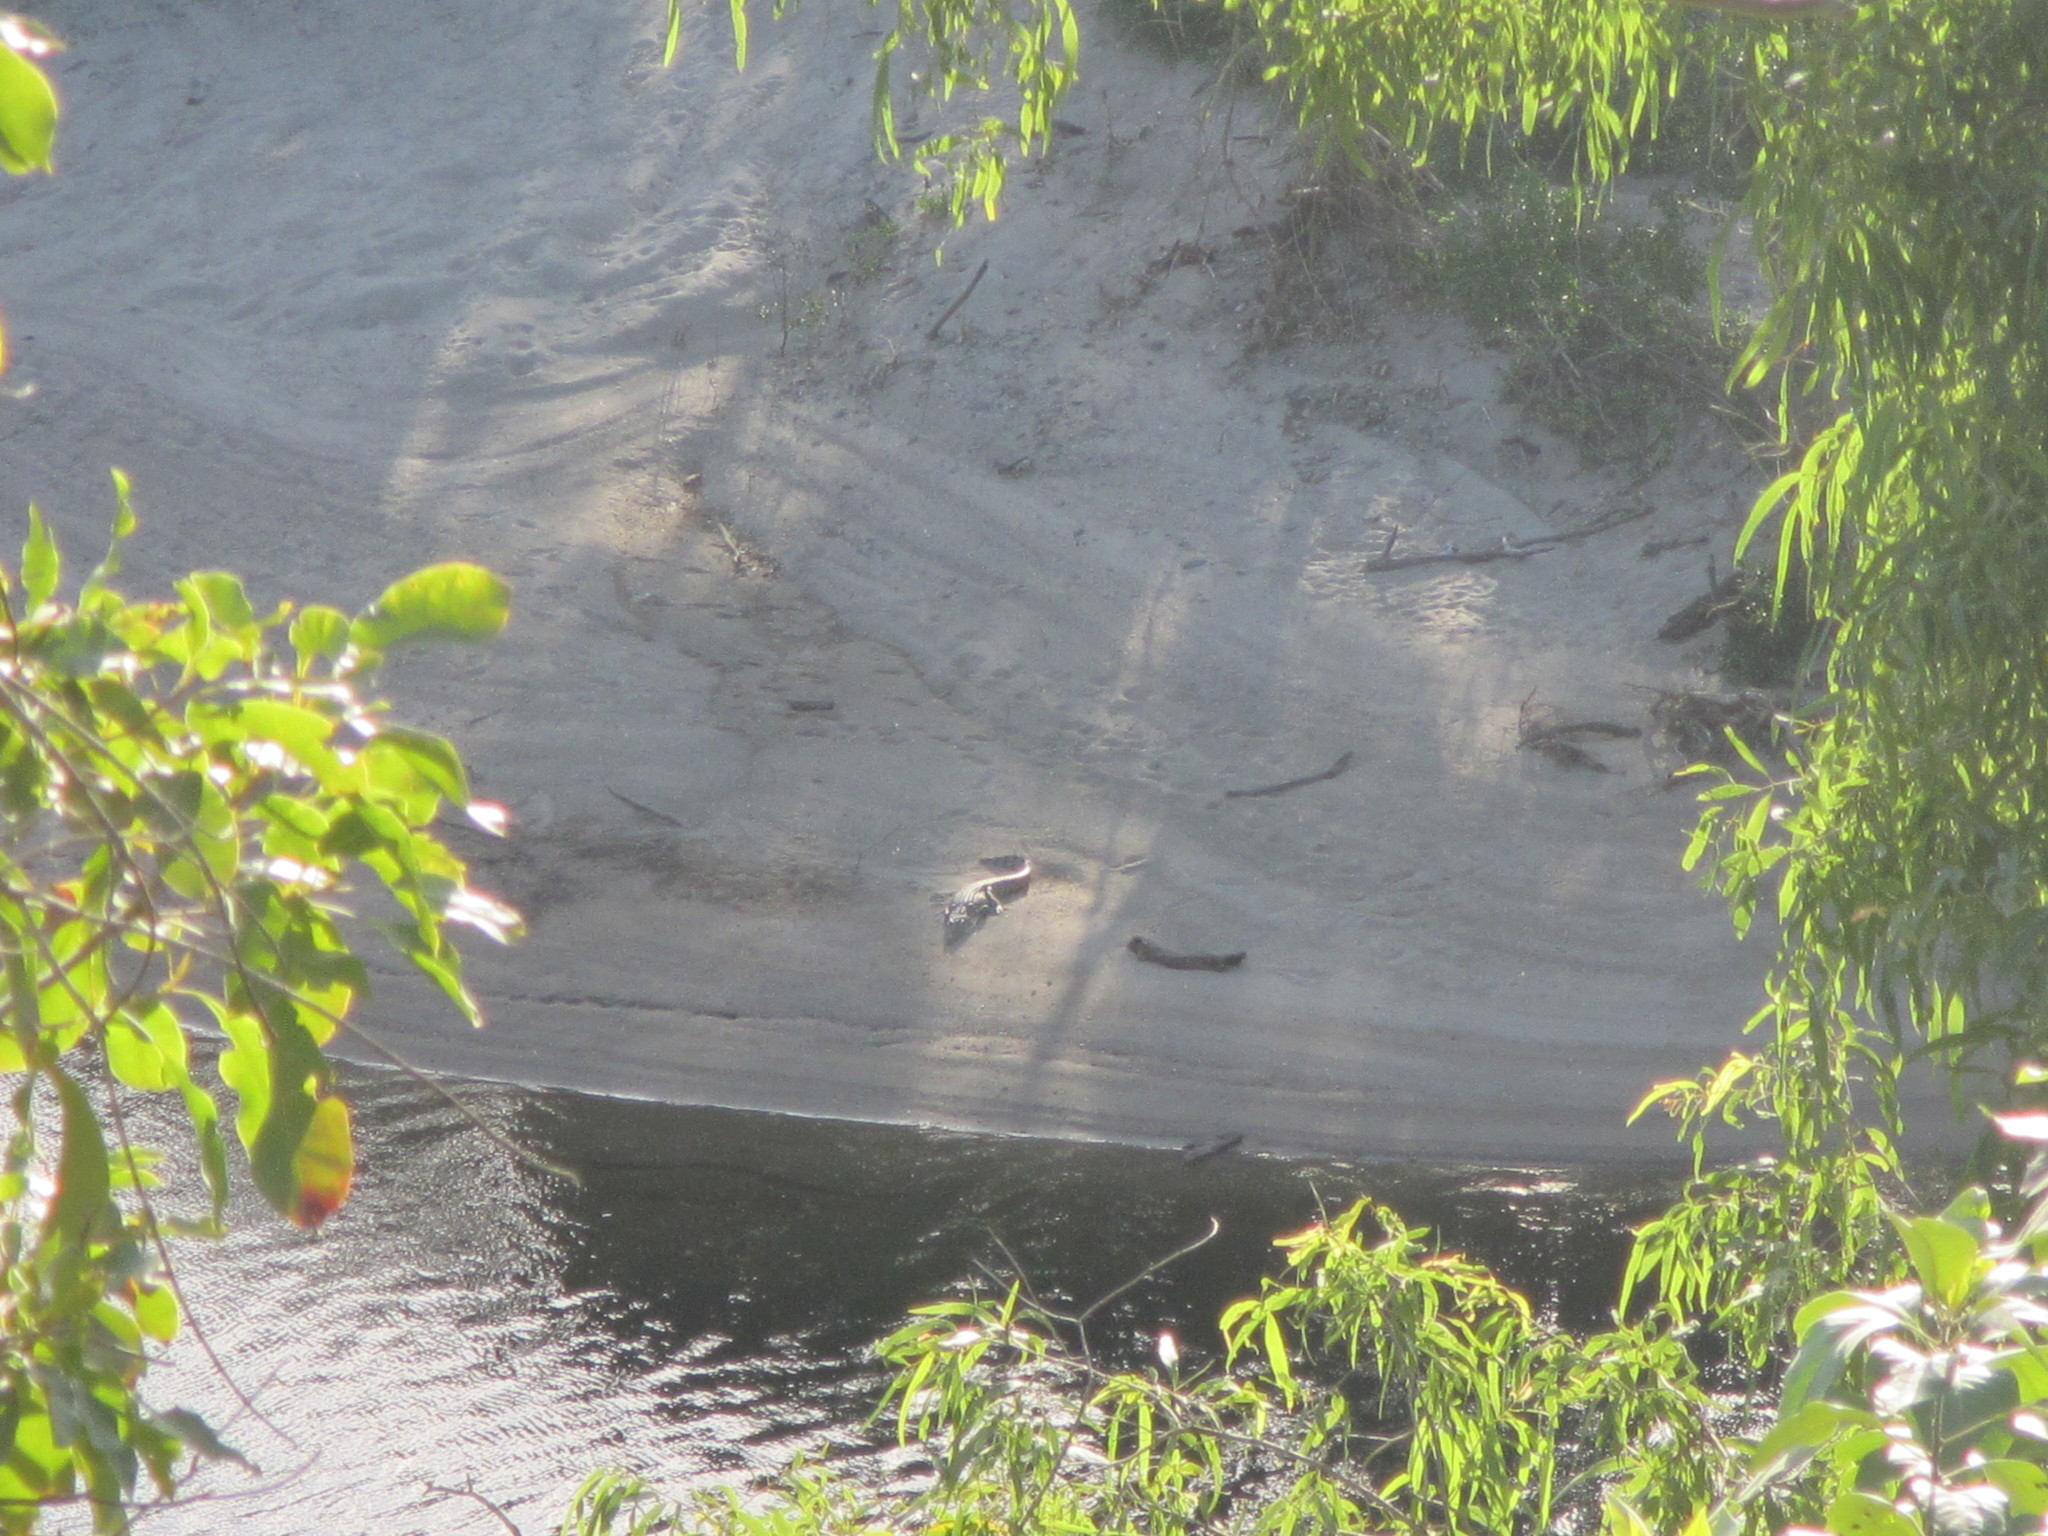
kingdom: Animalia
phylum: Chordata
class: Crocodylia
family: Crocodylidae
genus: Crocodylus
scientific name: Crocodylus porosus
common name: Saltwater crocodile
